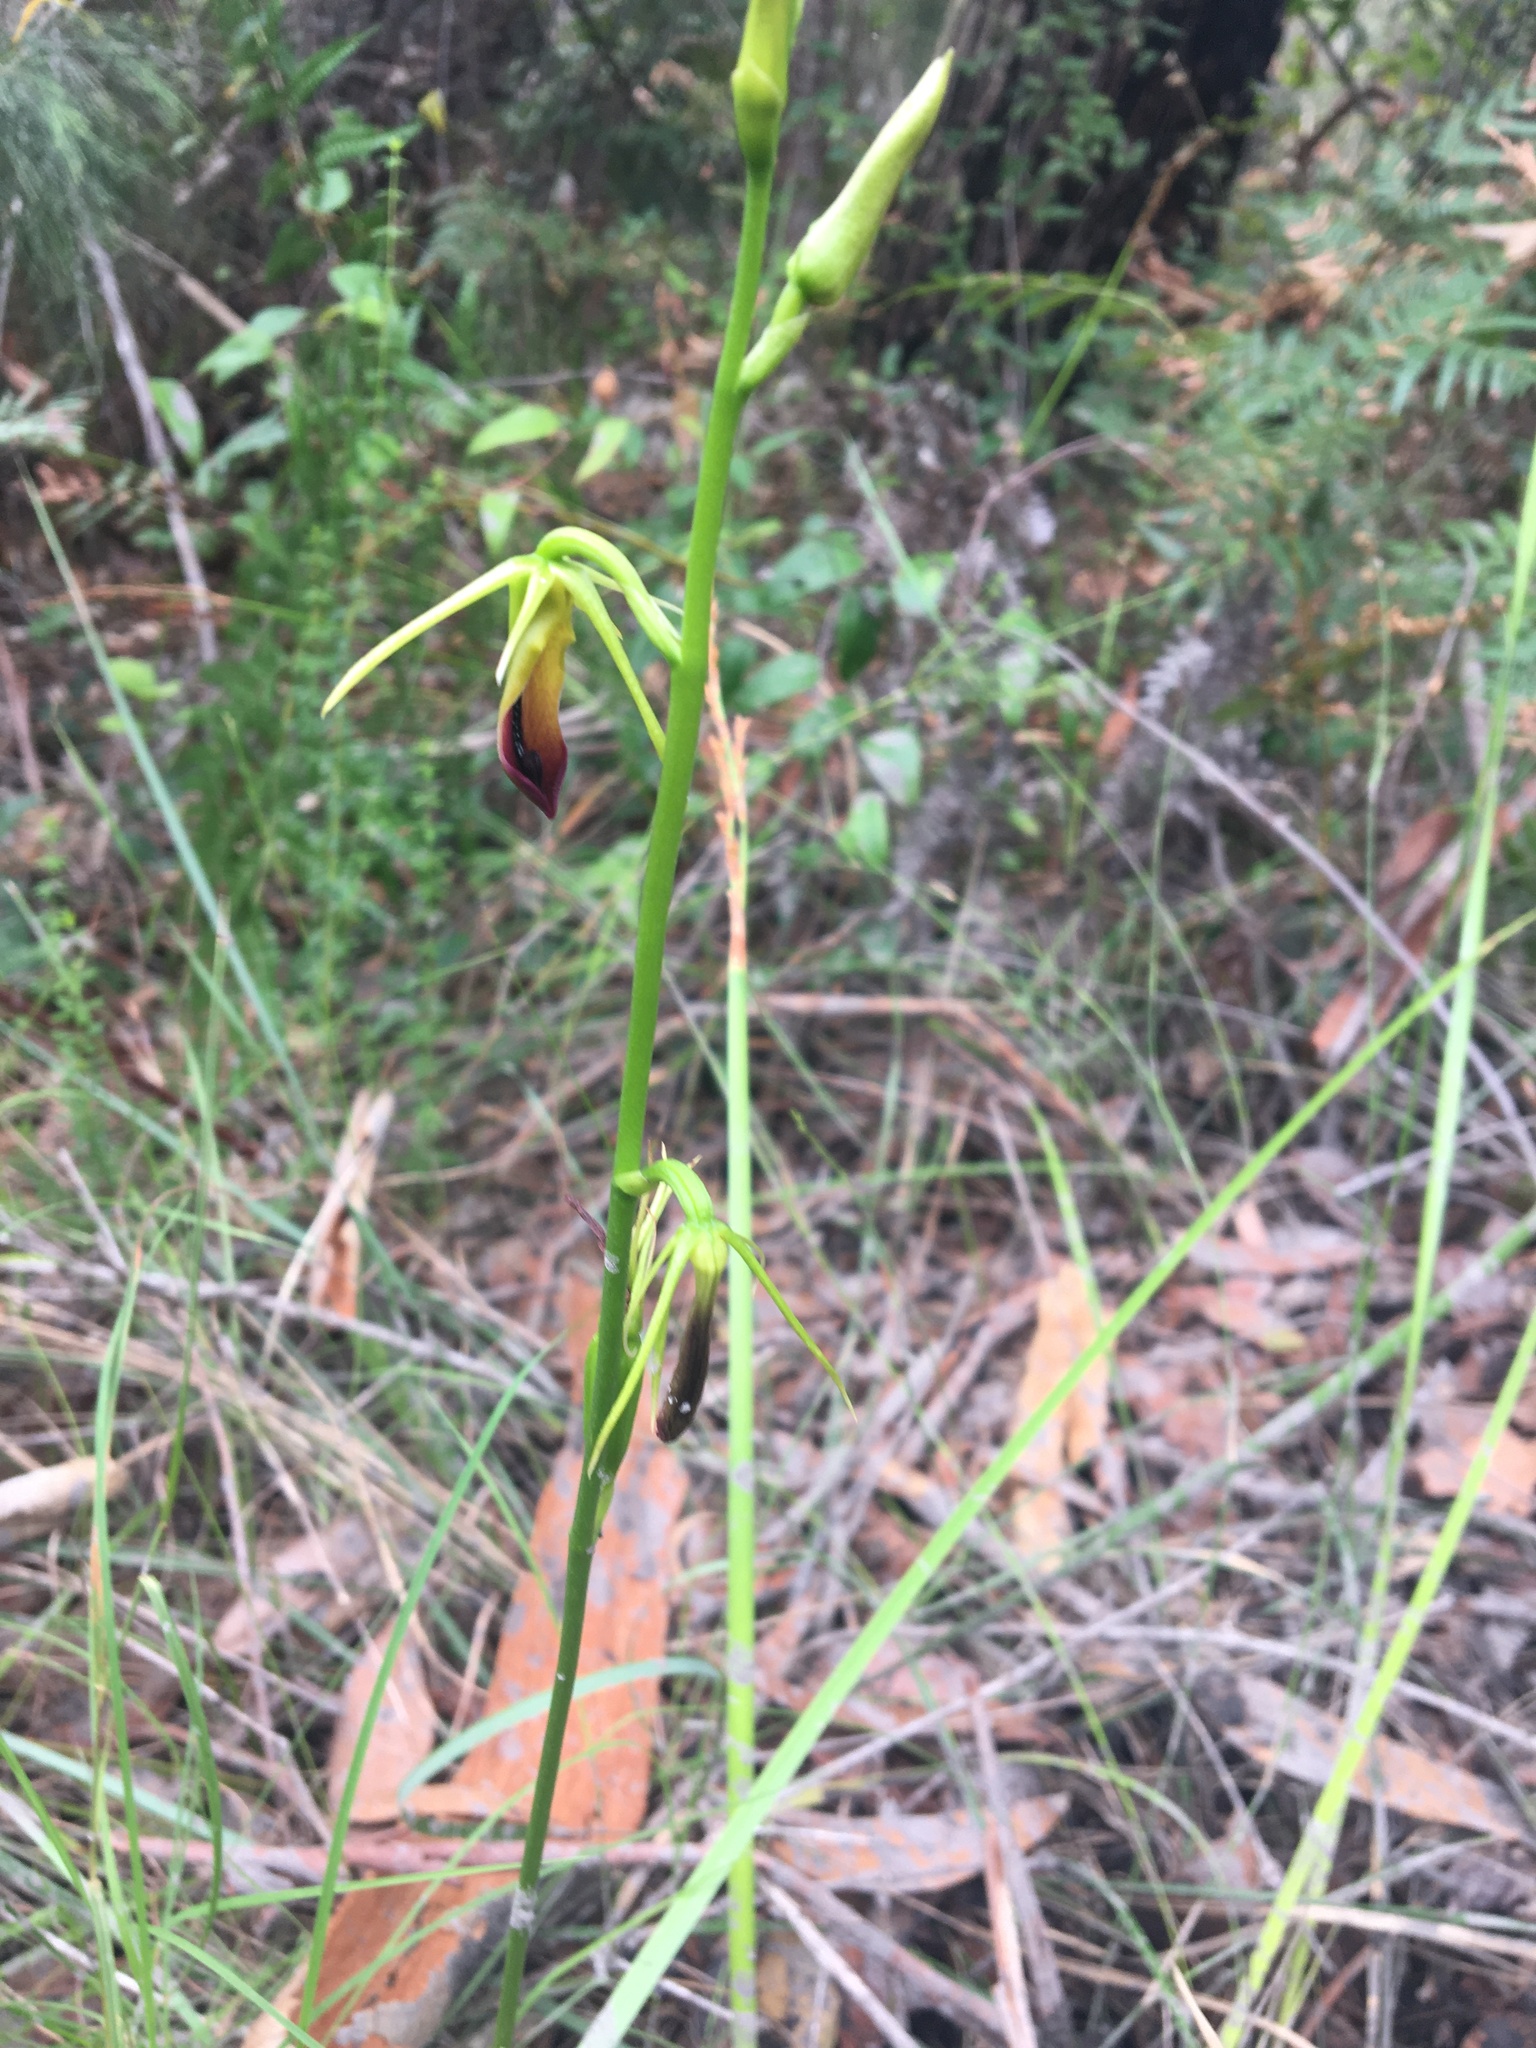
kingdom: Plantae
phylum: Tracheophyta
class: Liliopsida
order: Asparagales
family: Orchidaceae
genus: Cryptostylis
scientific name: Cryptostylis subulata
